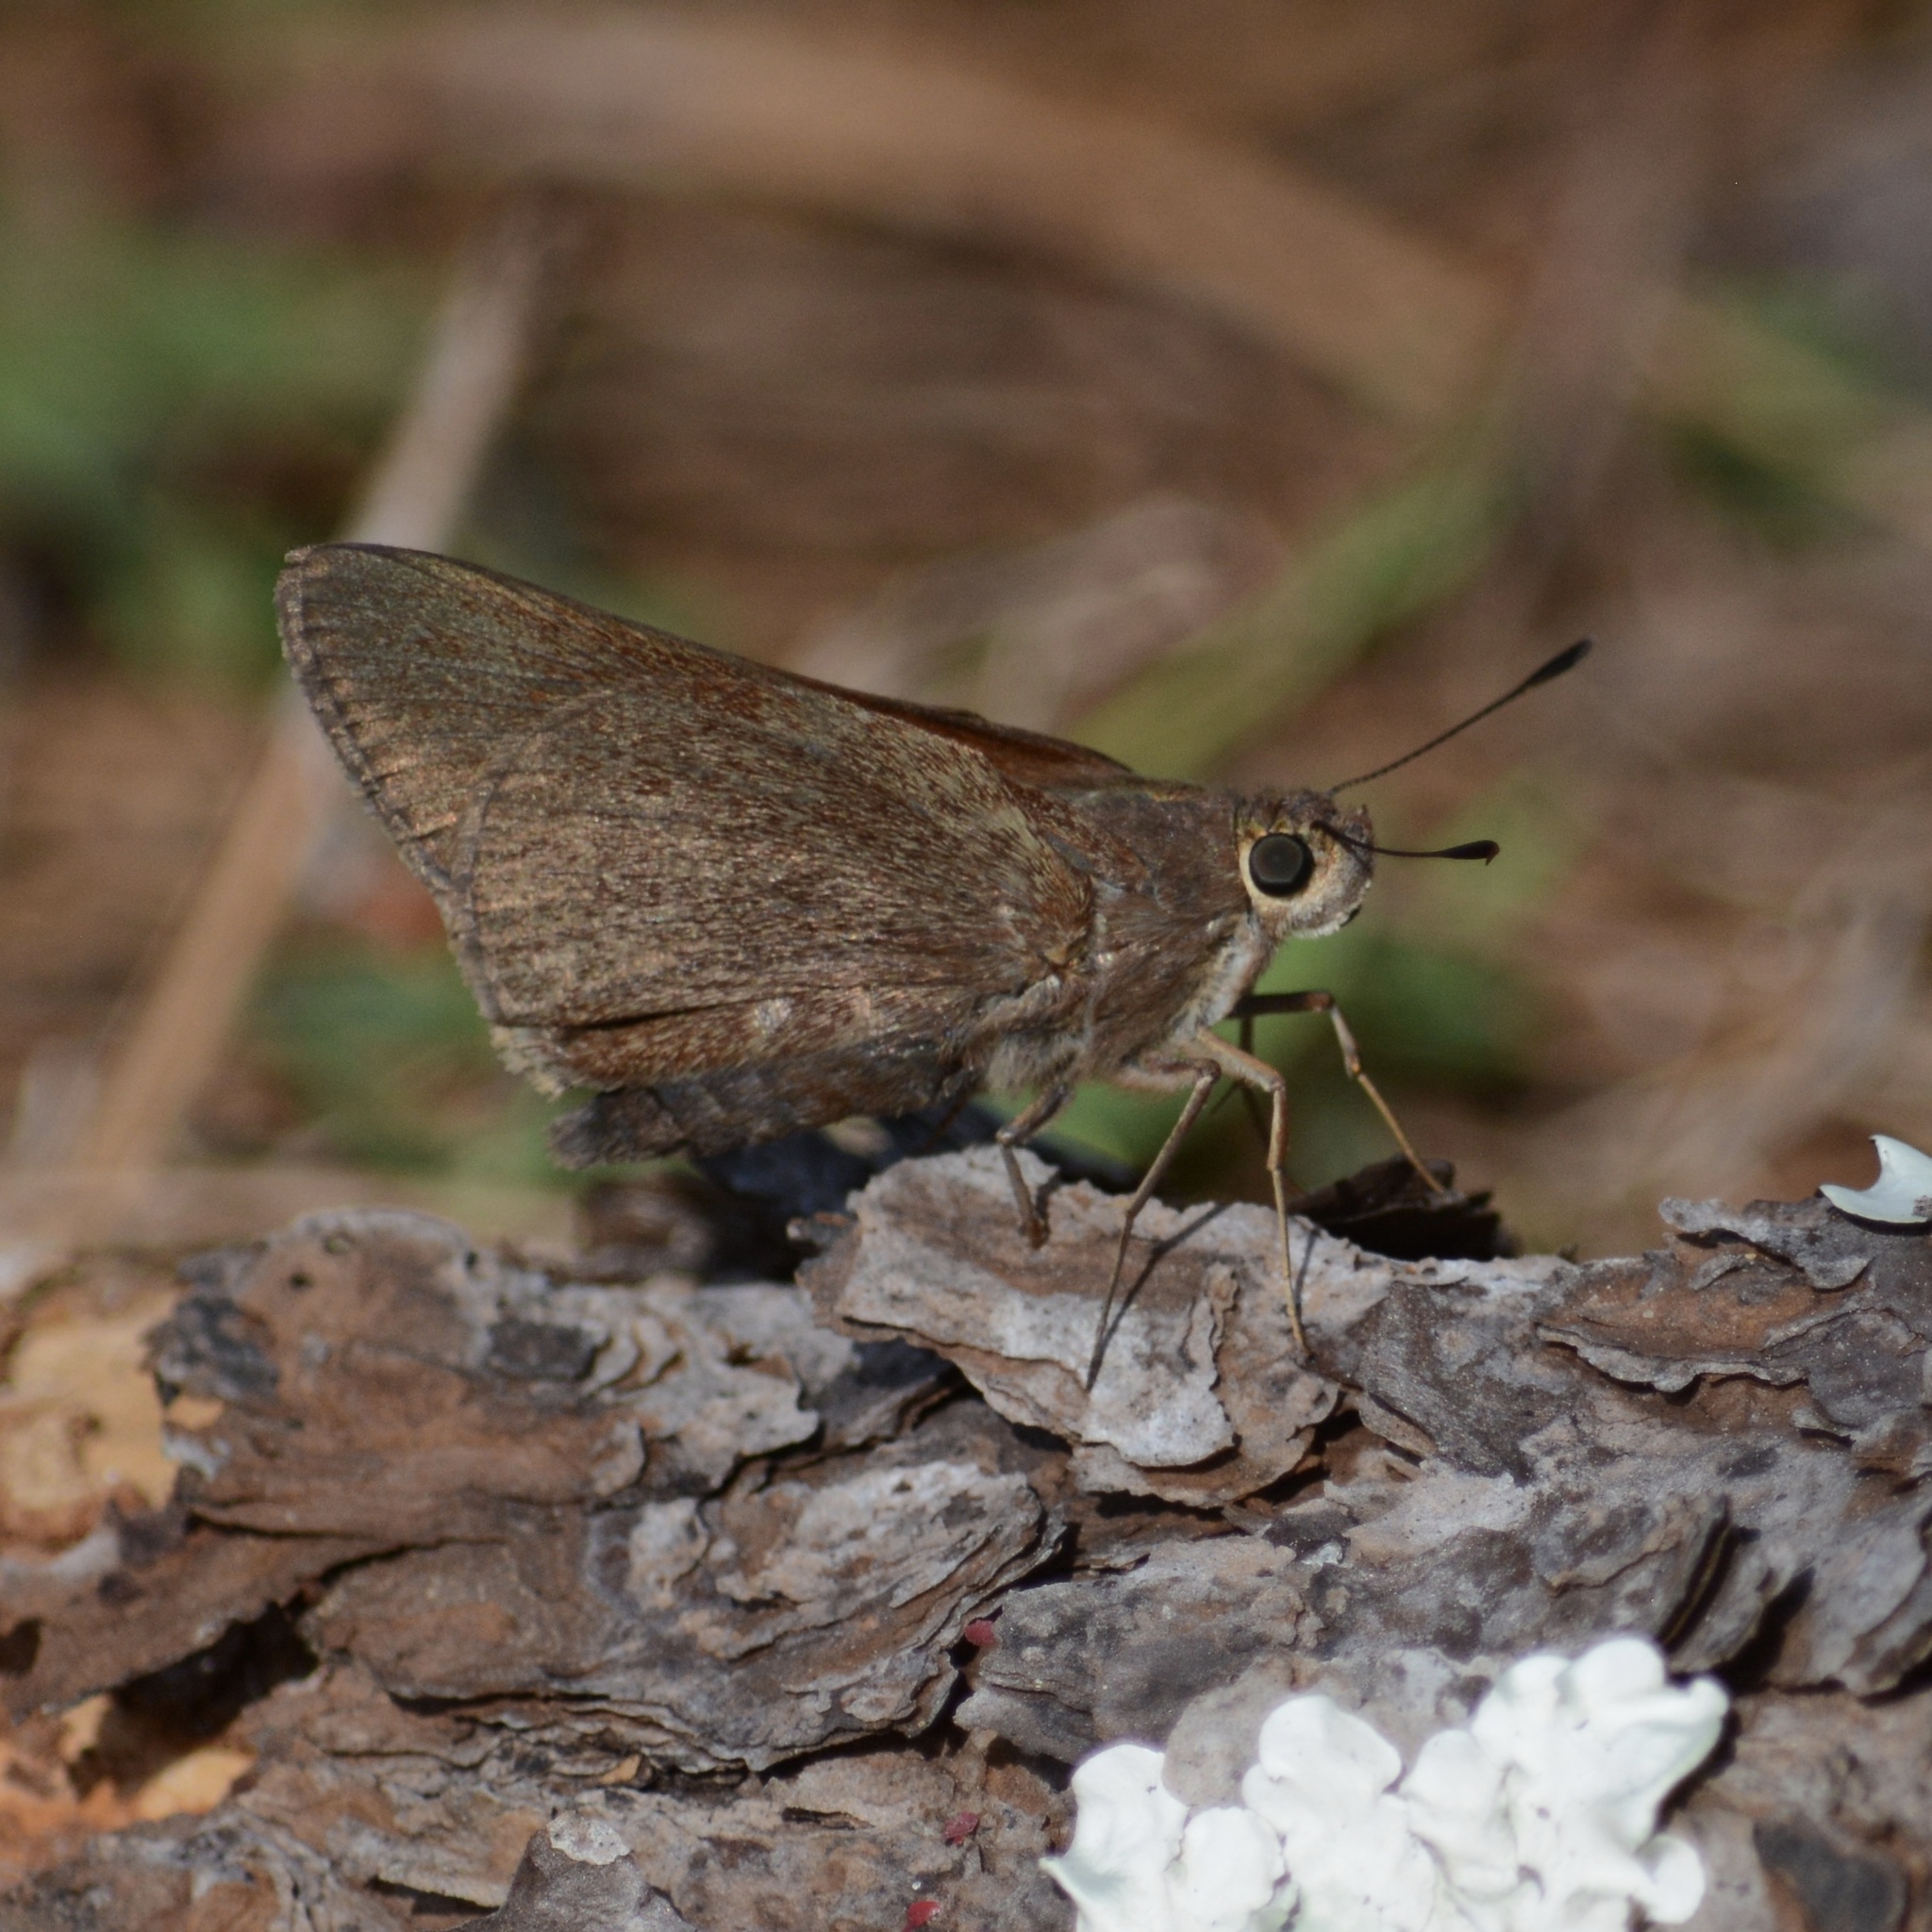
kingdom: Animalia
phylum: Arthropoda
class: Insecta
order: Lepidoptera
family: Hesperiidae
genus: Asbolis
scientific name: Asbolis capucinus
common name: Monk skipper
